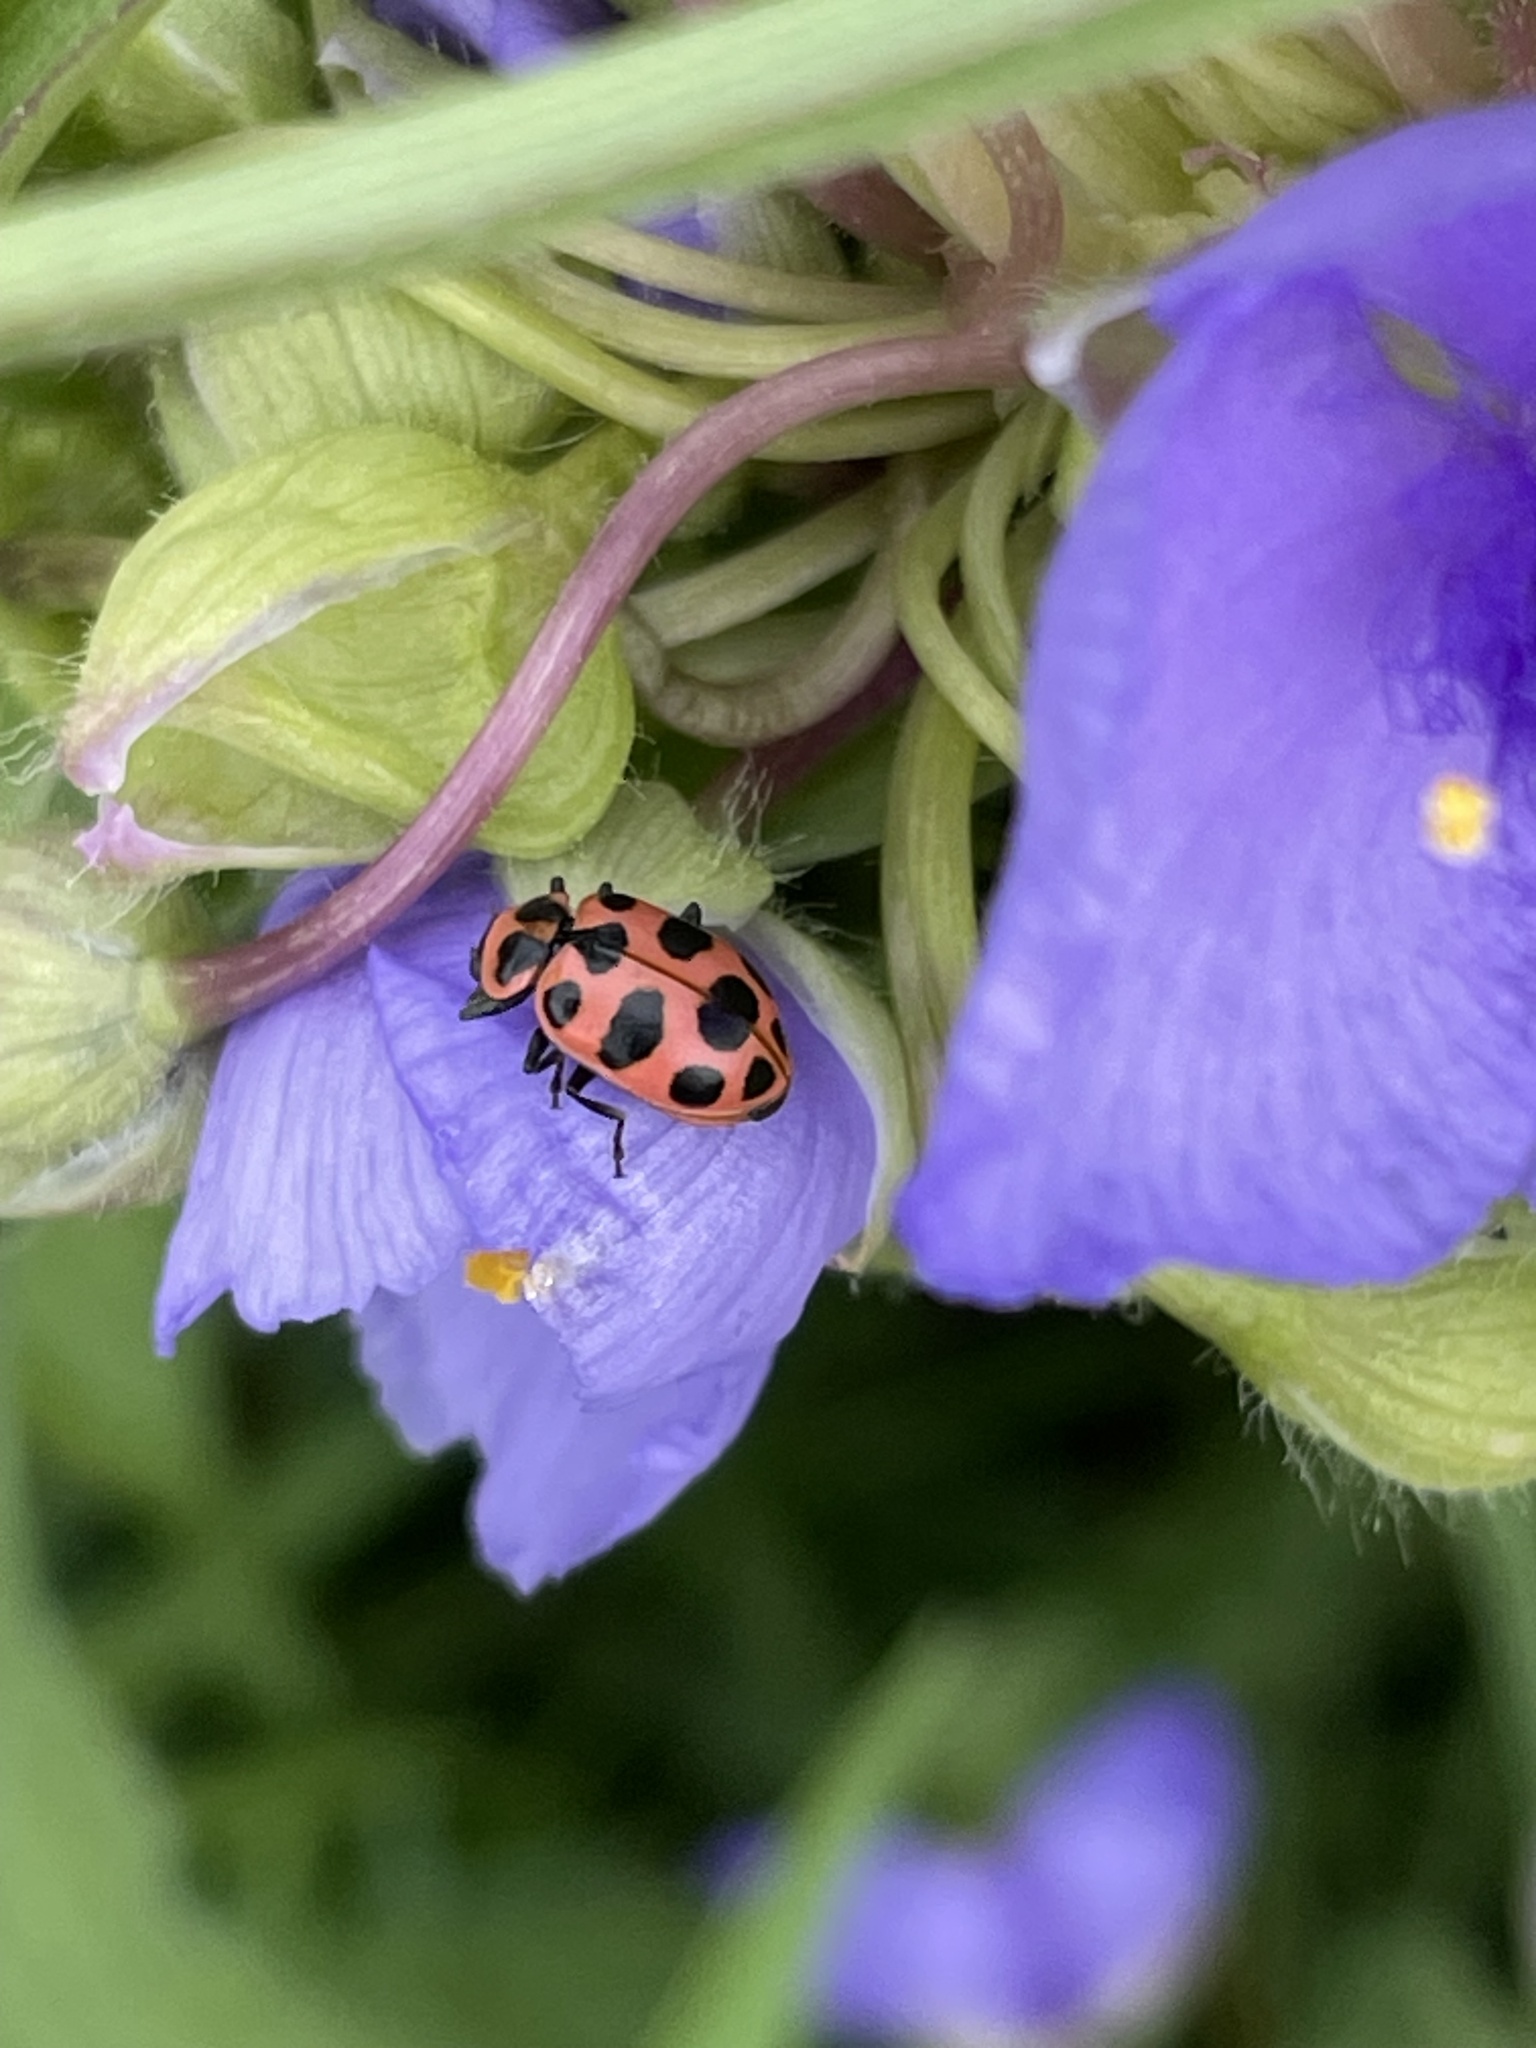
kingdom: Animalia
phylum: Arthropoda
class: Insecta
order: Coleoptera
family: Coccinellidae
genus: Coleomegilla
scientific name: Coleomegilla maculata
